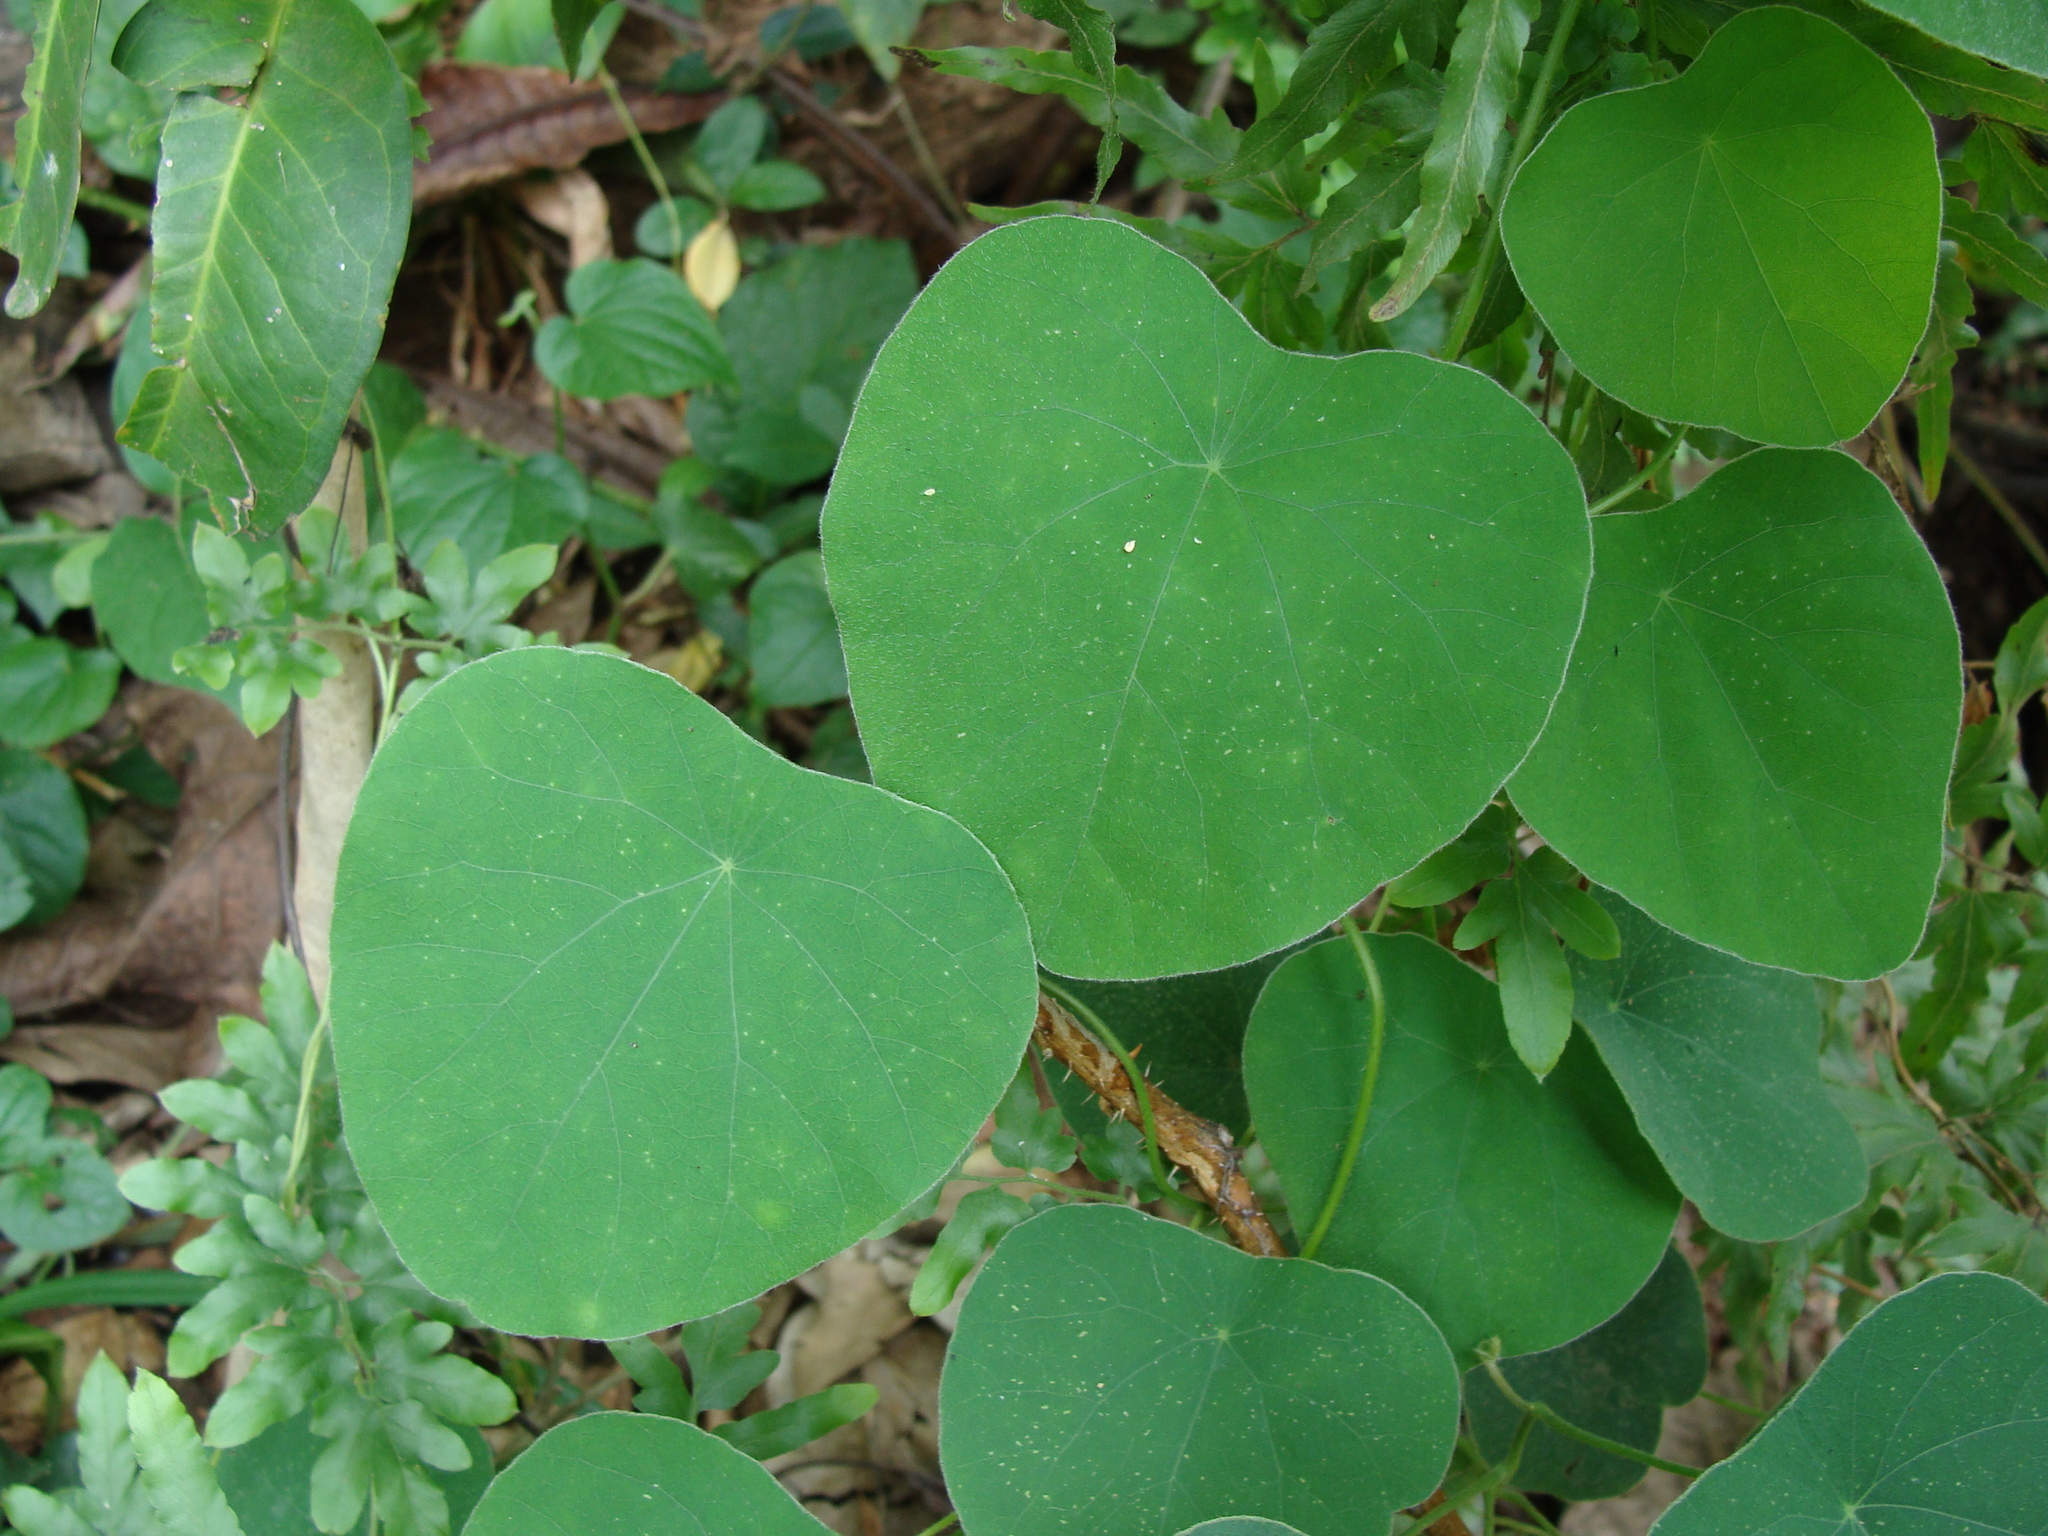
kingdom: Plantae
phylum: Tracheophyta
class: Magnoliopsida
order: Ranunculales
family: Menispermaceae
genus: Cissampelos
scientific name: Cissampelos pareira
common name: Velvetleaf
